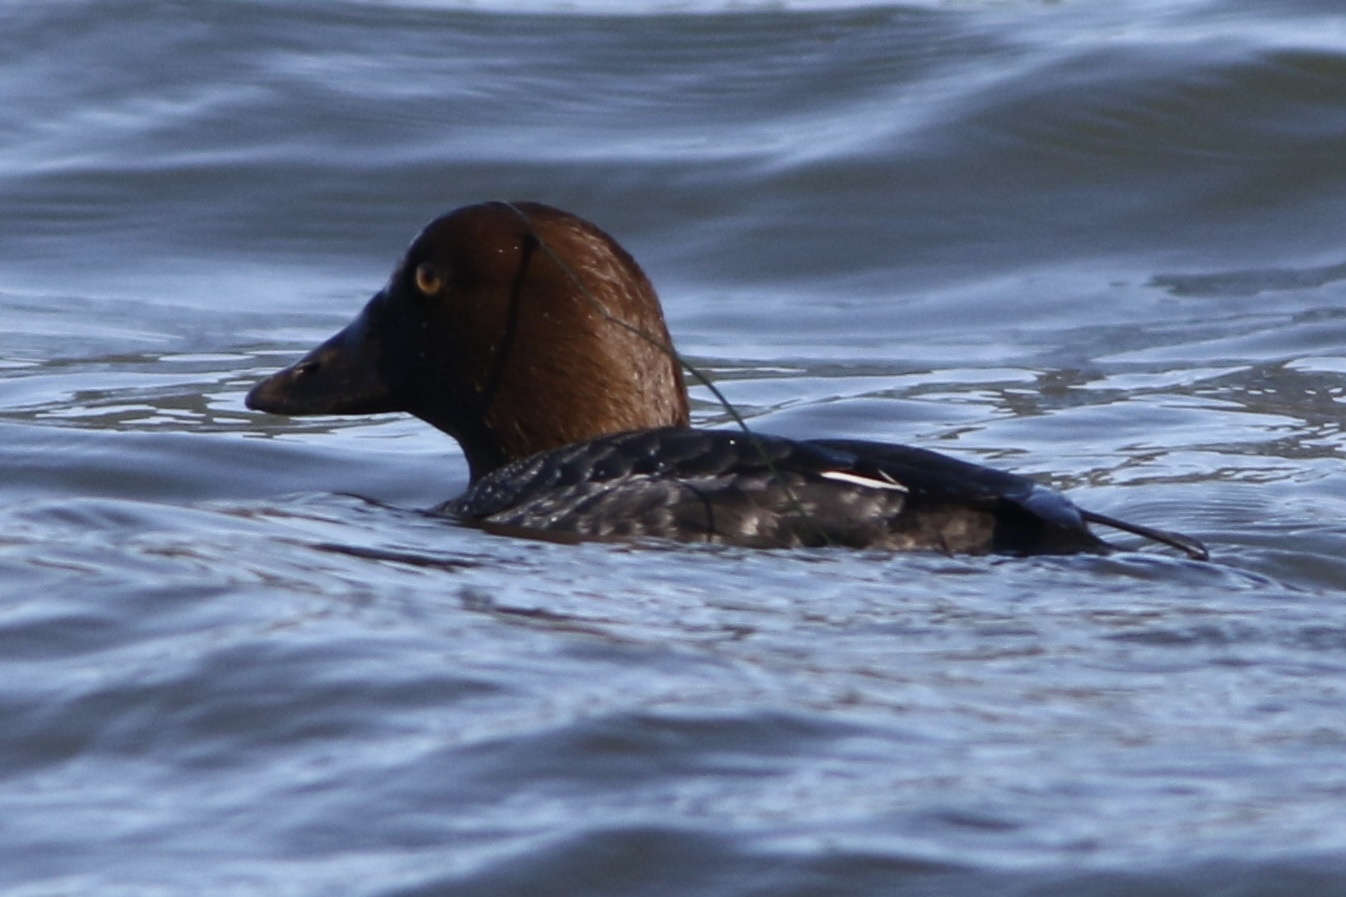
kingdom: Animalia
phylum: Chordata
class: Aves
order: Anseriformes
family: Anatidae
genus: Bucephala
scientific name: Bucephala clangula
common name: Common goldeneye
